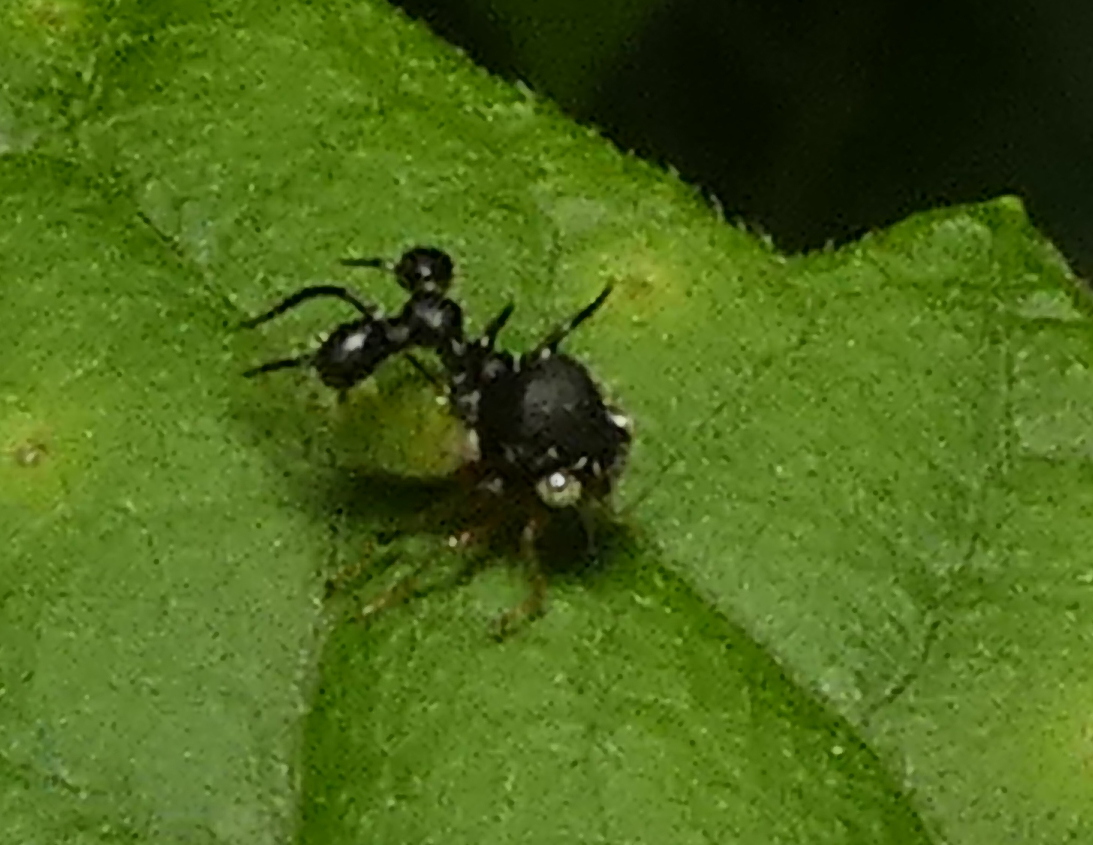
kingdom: Animalia
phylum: Arthropoda
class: Insecta
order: Hemiptera
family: Membracidae
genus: Cyphonia
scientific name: Cyphonia clavata
